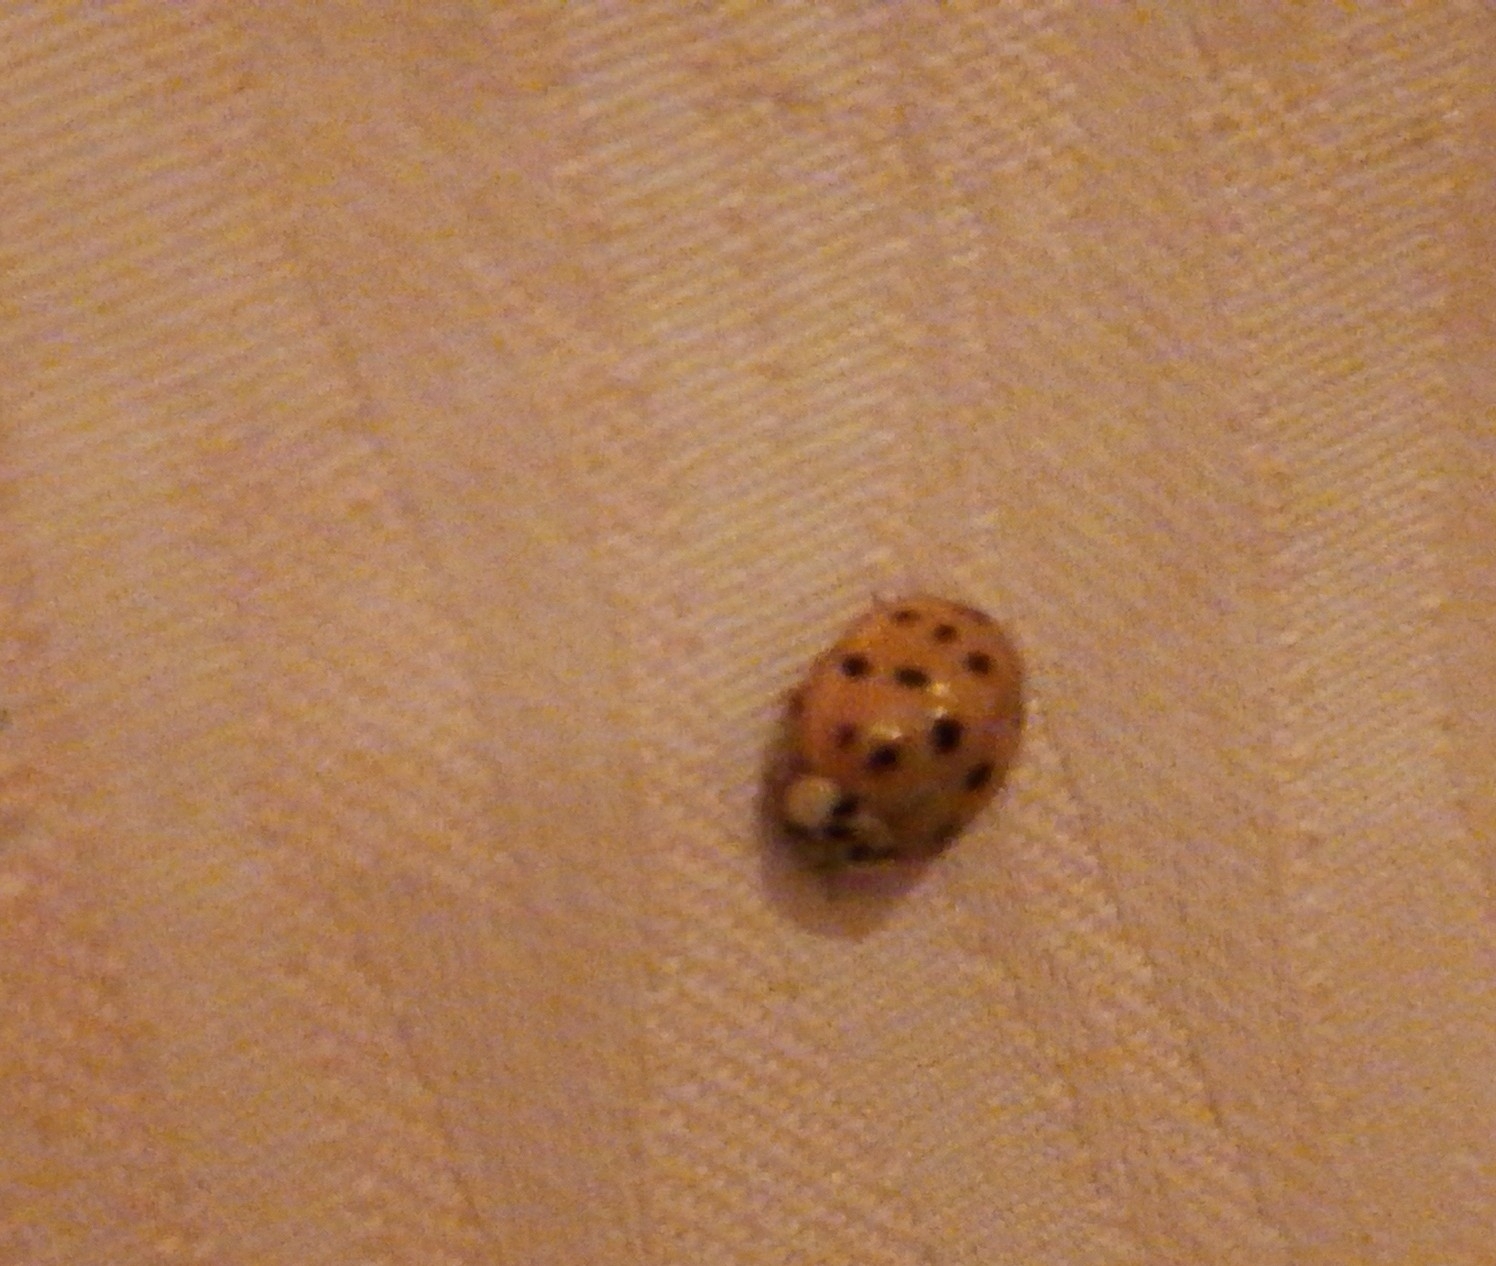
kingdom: Animalia
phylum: Arthropoda
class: Insecta
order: Coleoptera
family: Coccinellidae
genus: Harmonia
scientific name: Harmonia axyridis
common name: Harlequin ladybird
